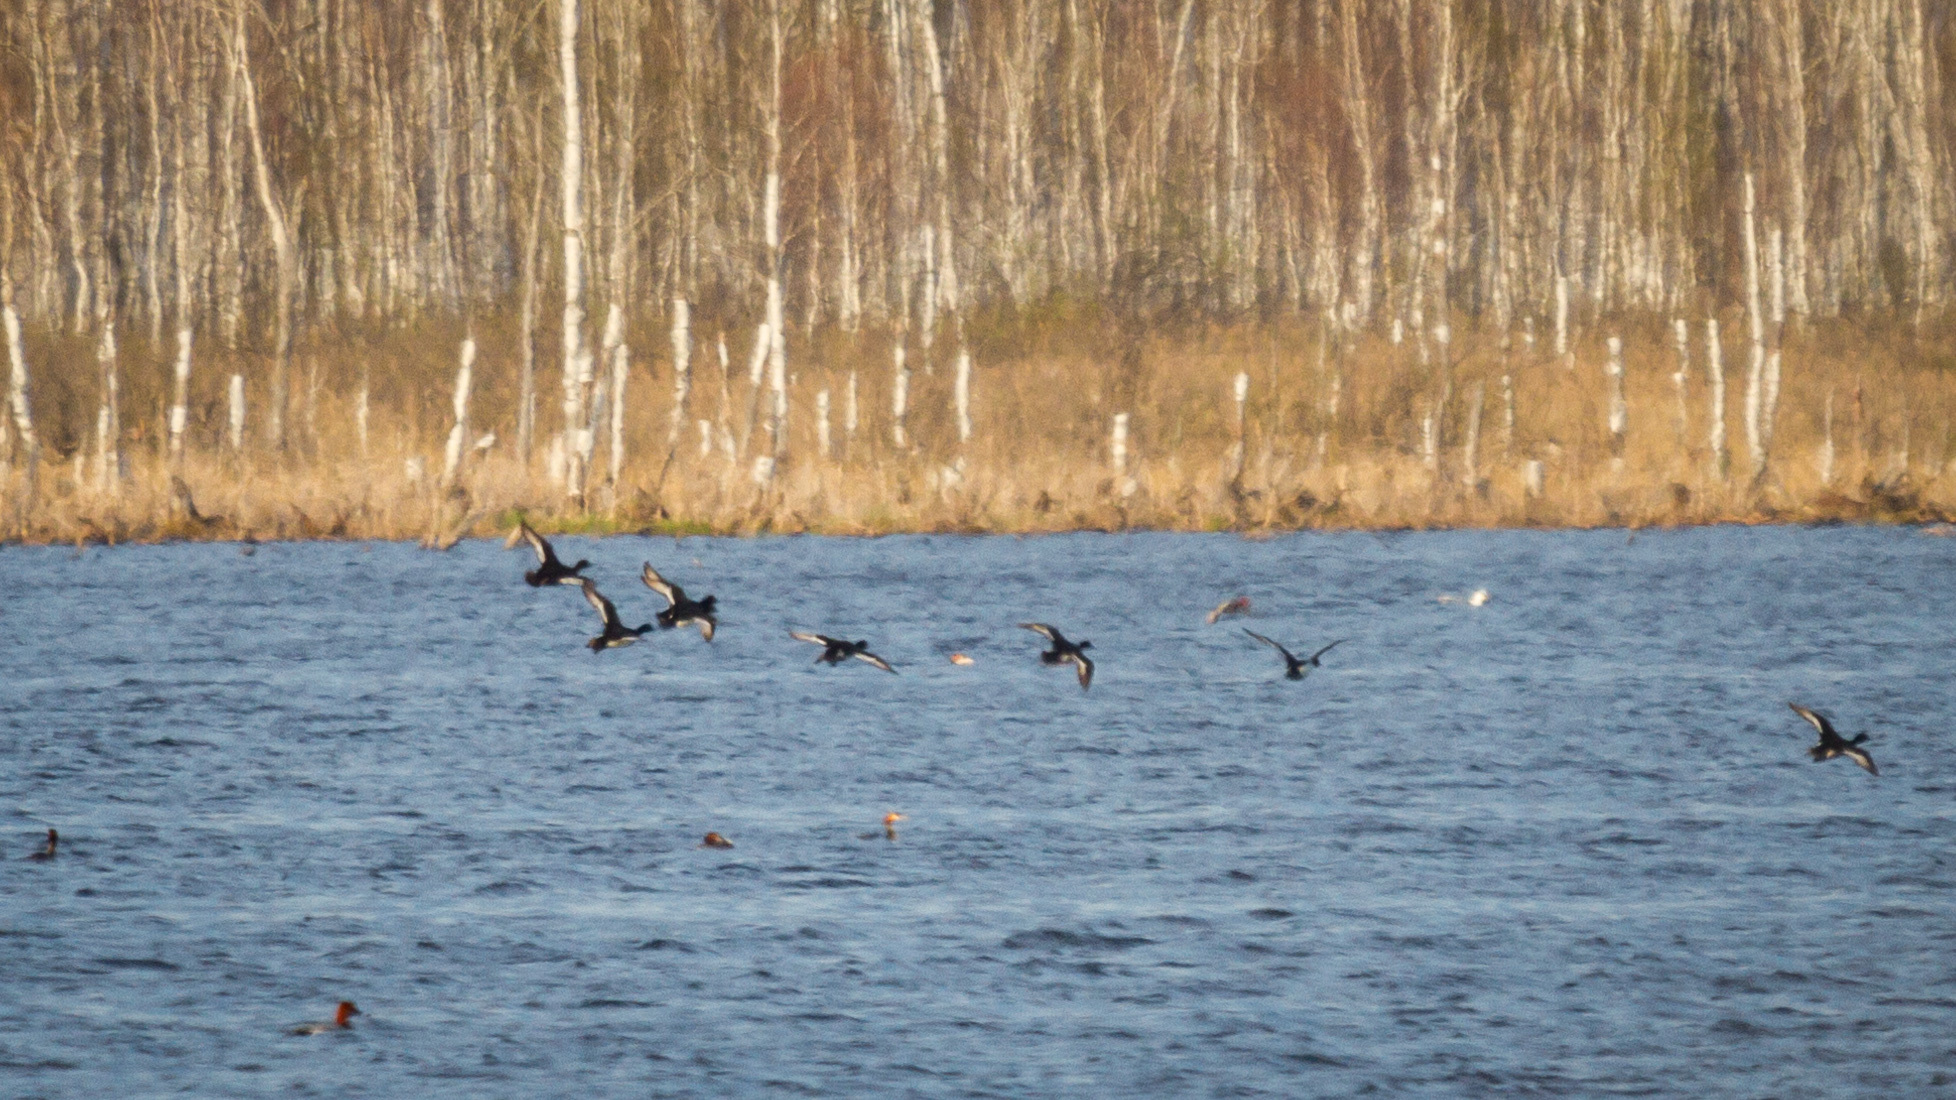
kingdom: Animalia
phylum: Chordata
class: Aves
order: Anseriformes
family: Anatidae
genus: Aythya
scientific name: Aythya fuligula
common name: Tufted duck
